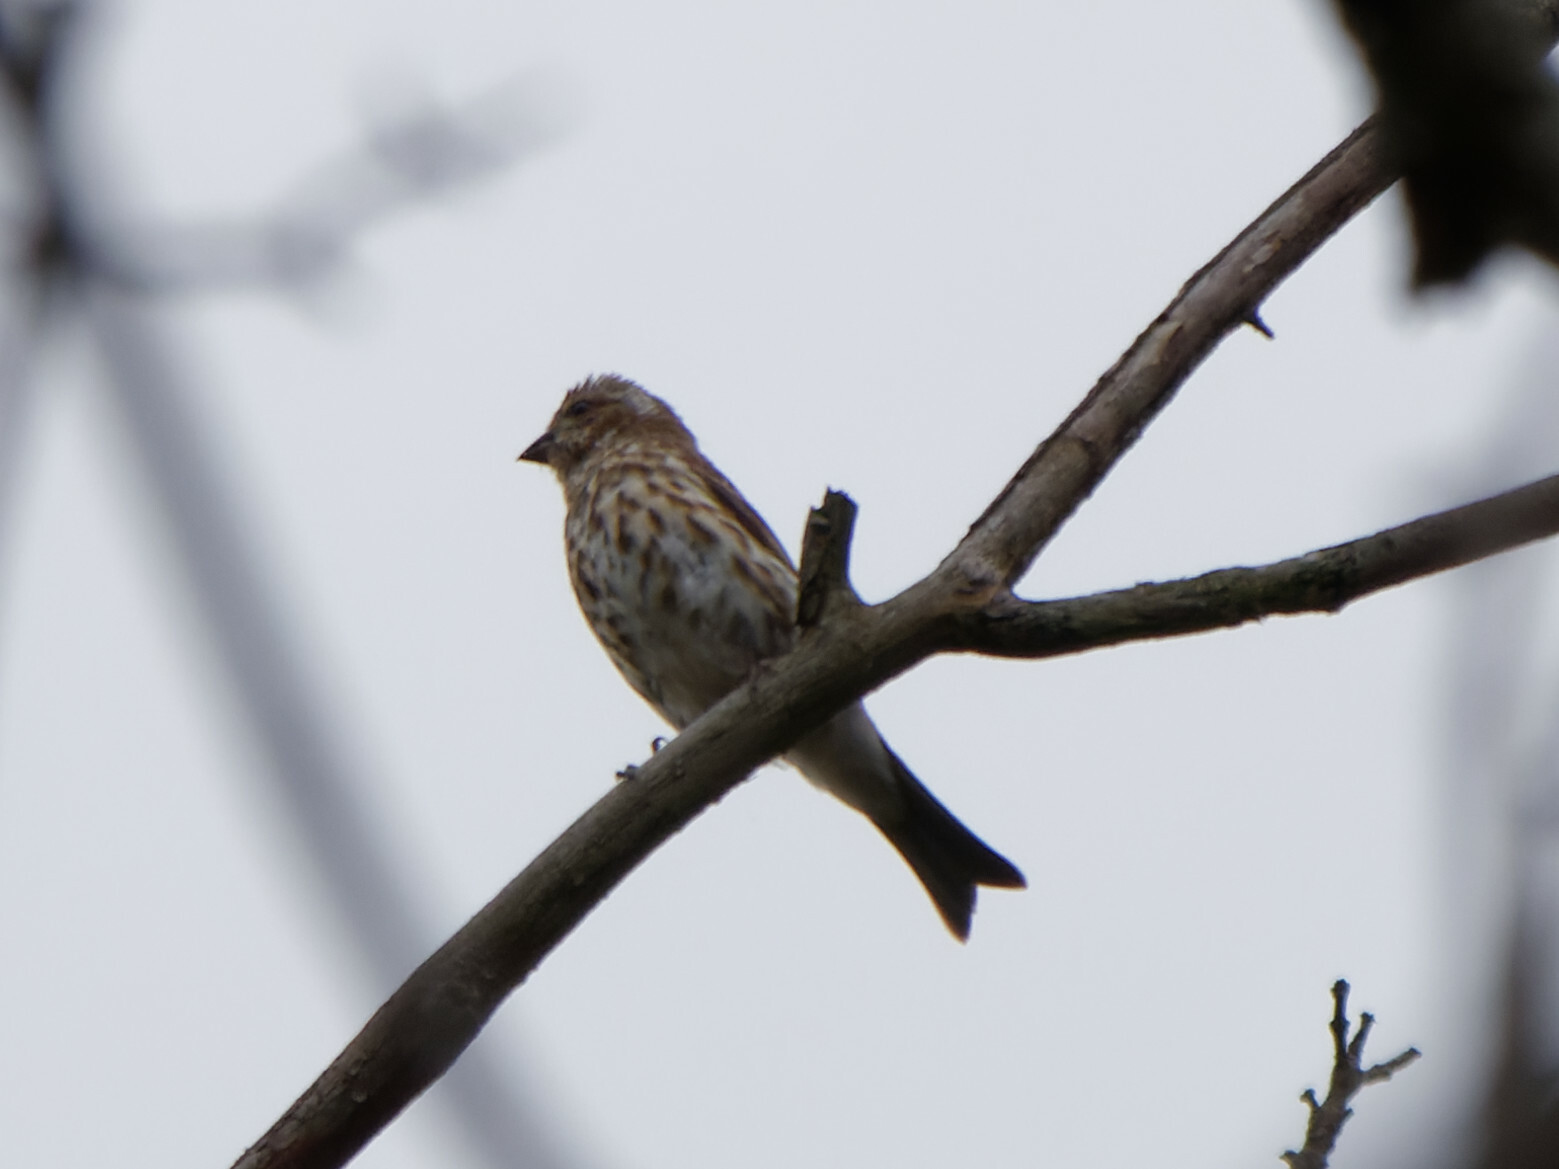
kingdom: Animalia
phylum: Chordata
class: Aves
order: Passeriformes
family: Fringillidae
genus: Haemorhous
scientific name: Haemorhous purpureus
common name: Purple finch
